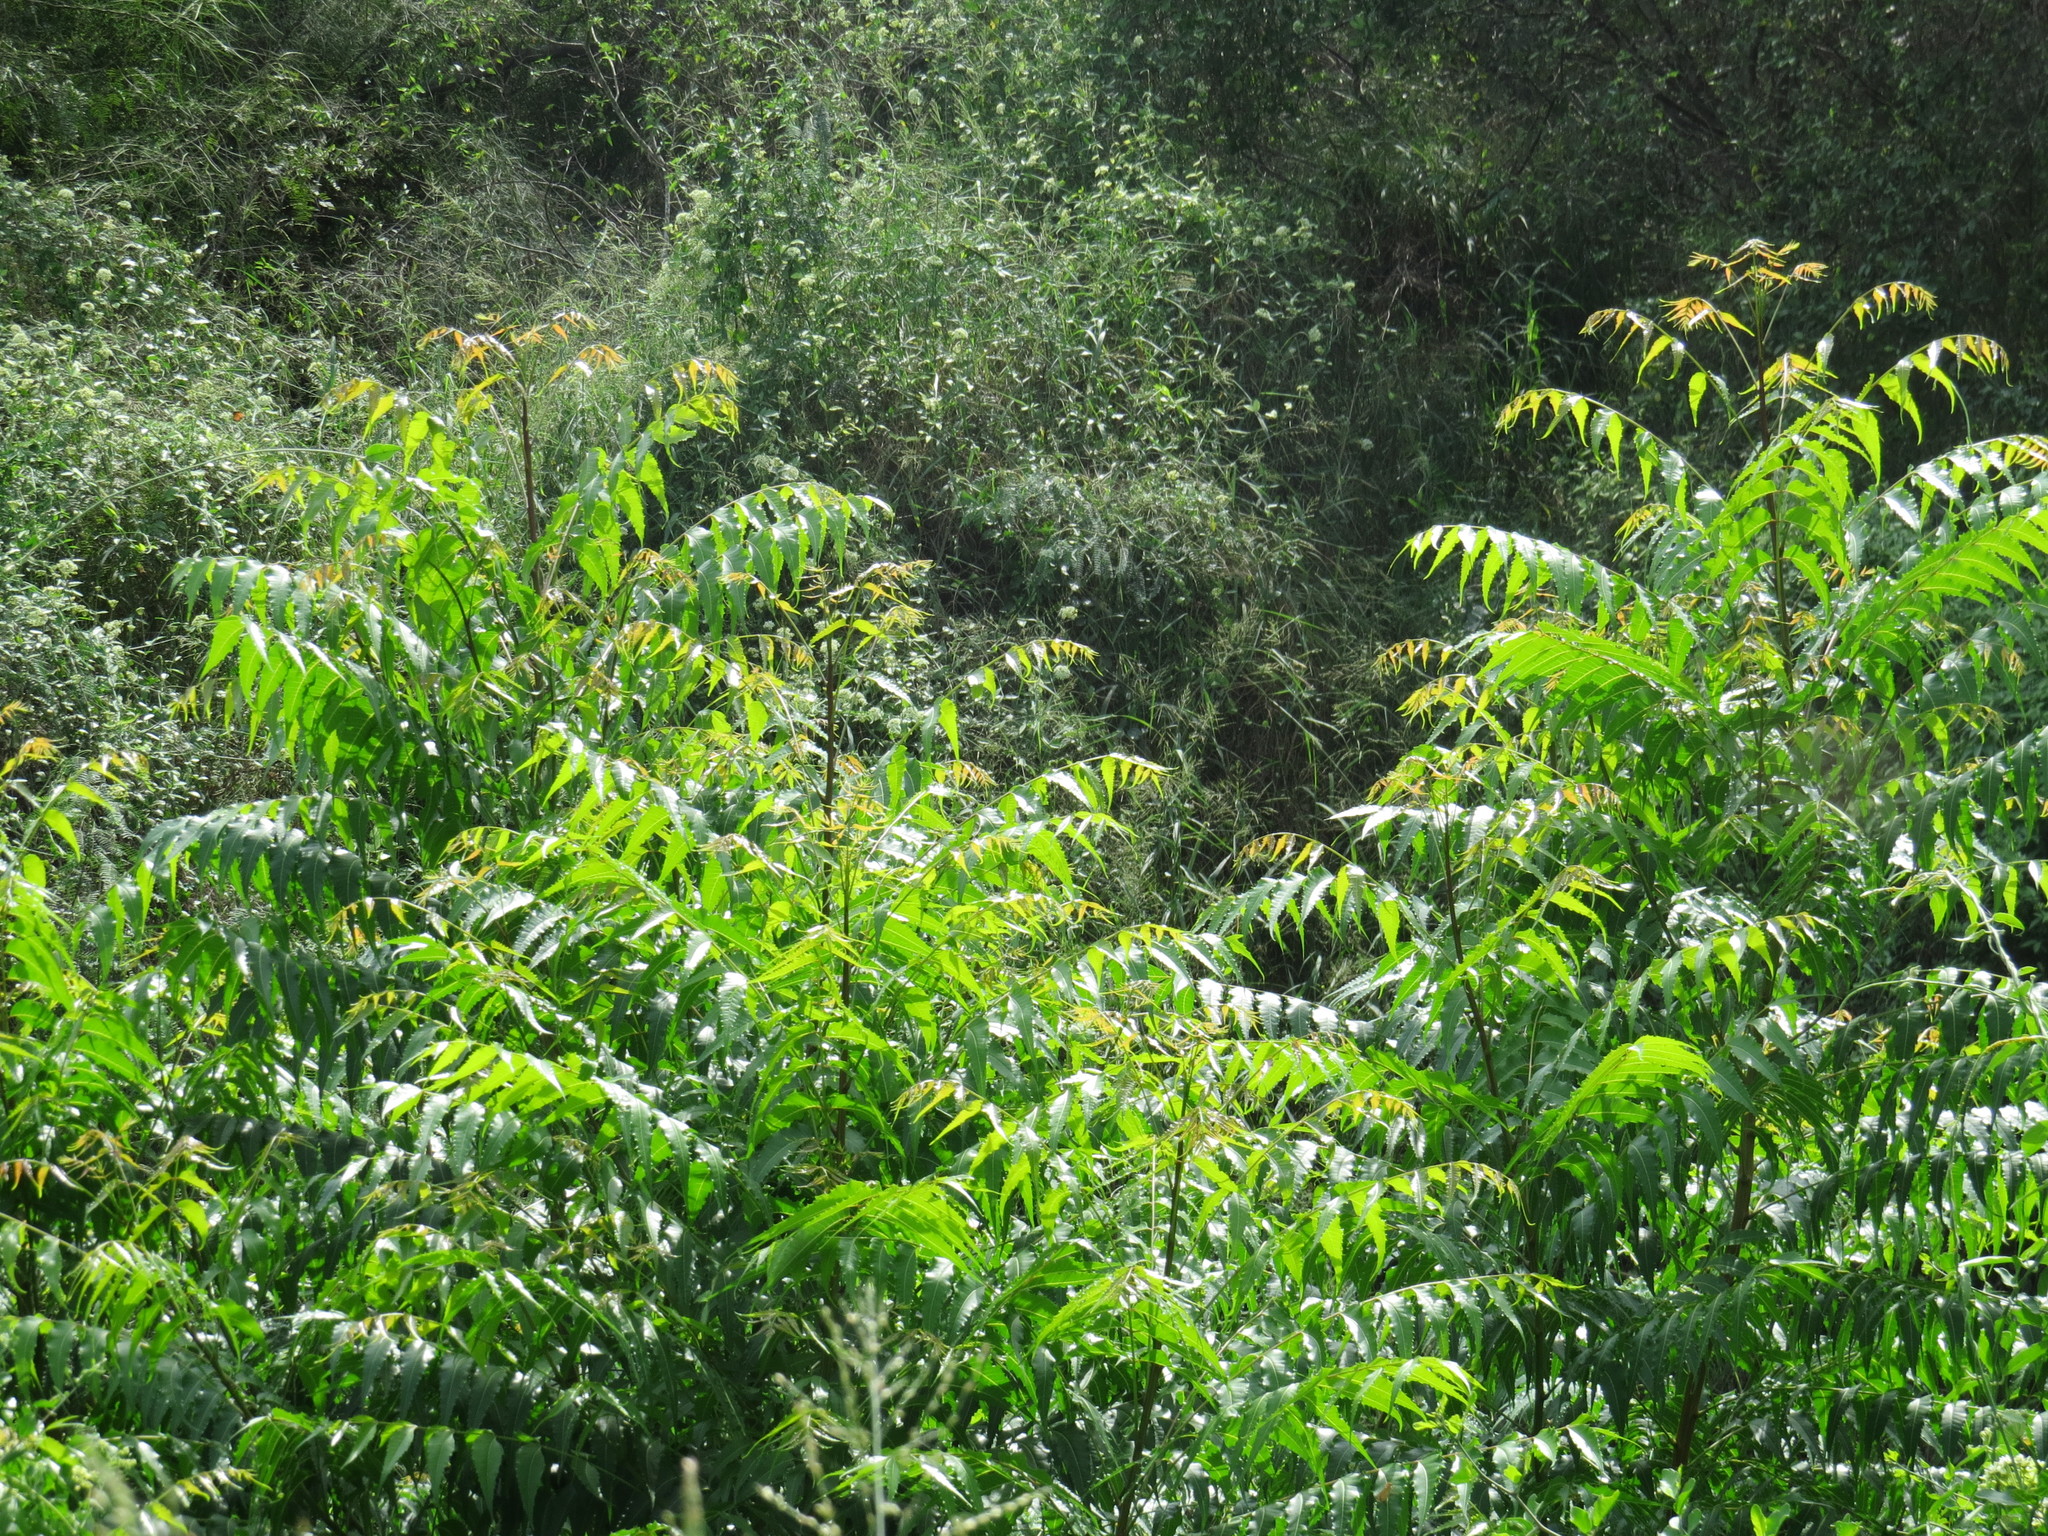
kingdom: Plantae
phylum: Tracheophyta
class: Magnoliopsida
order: Sapindales
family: Meliaceae
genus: Azadirachta
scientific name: Azadirachta indica
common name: Neem
